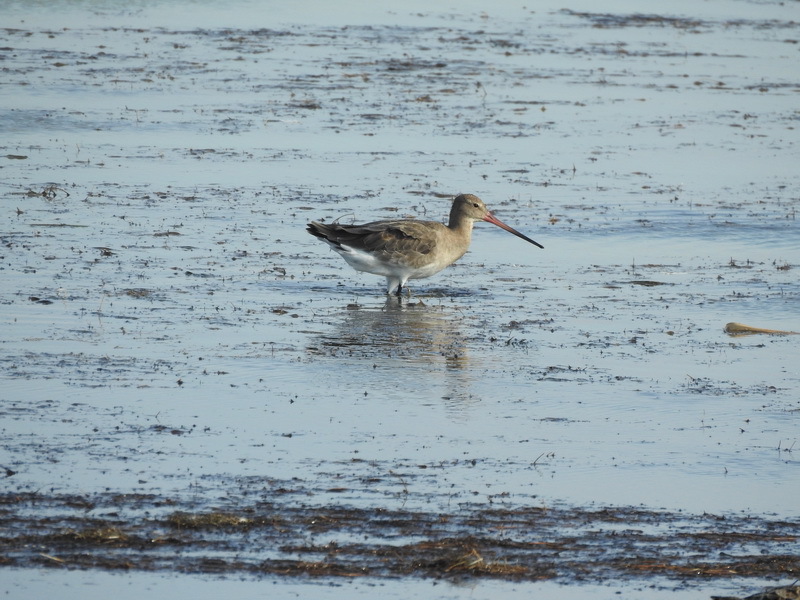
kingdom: Animalia
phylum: Chordata
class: Aves
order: Charadriiformes
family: Scolopacidae
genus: Limosa
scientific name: Limosa limosa
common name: Black-tailed godwit
